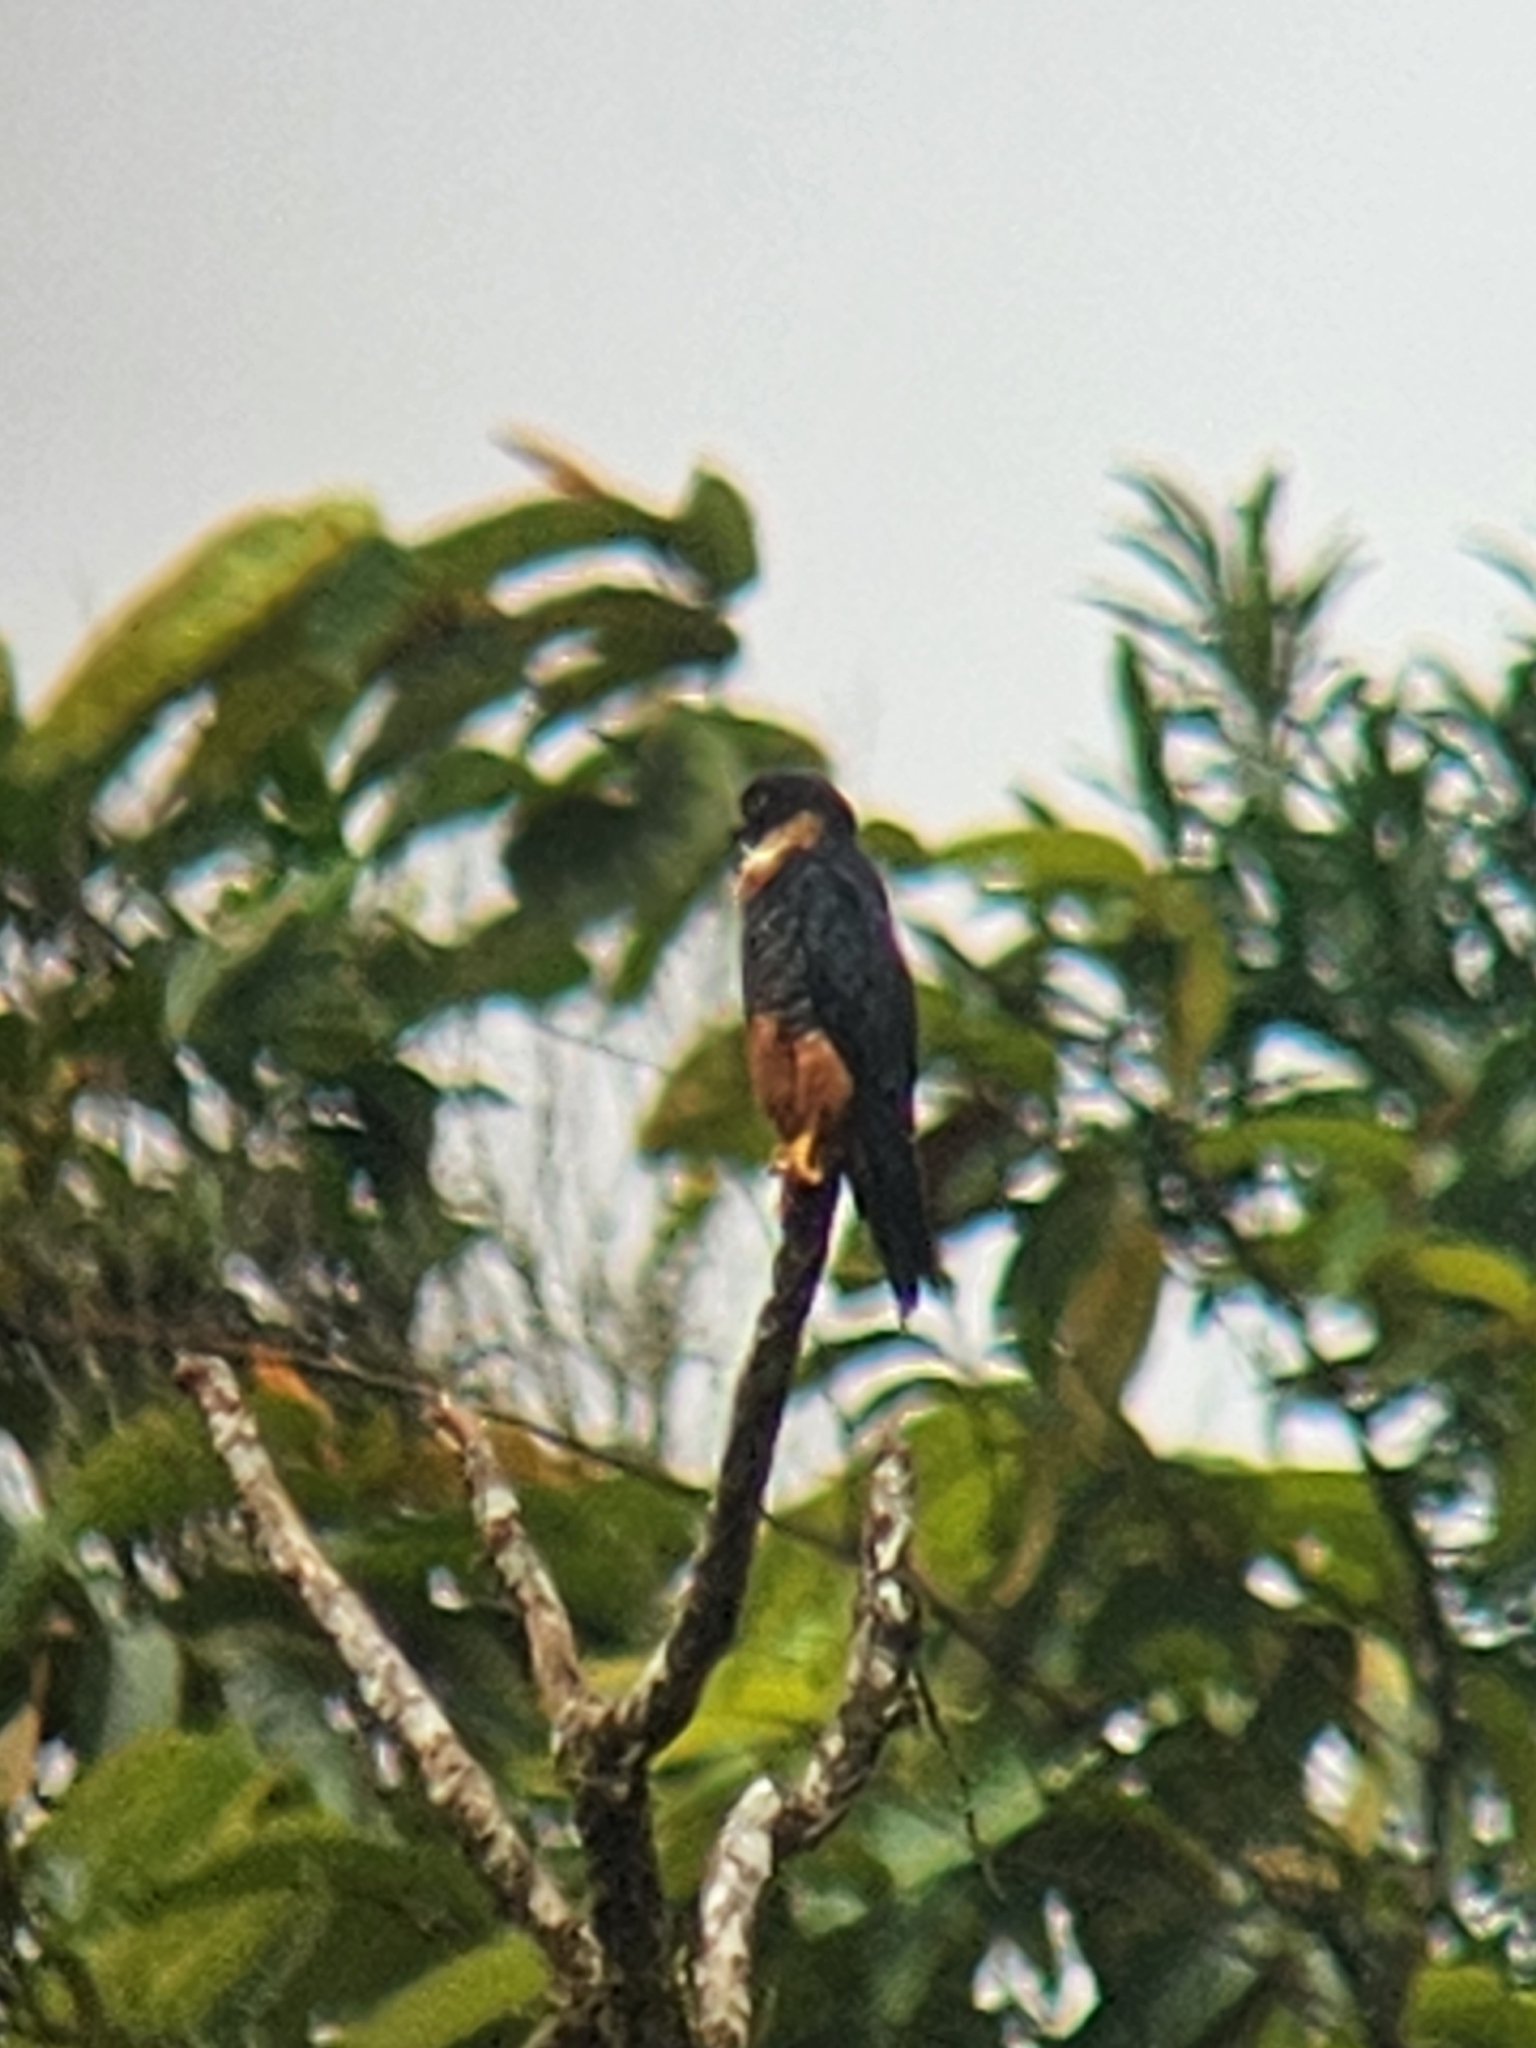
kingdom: Animalia
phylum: Chordata
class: Aves
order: Falconiformes
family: Falconidae
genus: Falco
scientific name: Falco deiroleucus
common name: Orange-breasted falcon
